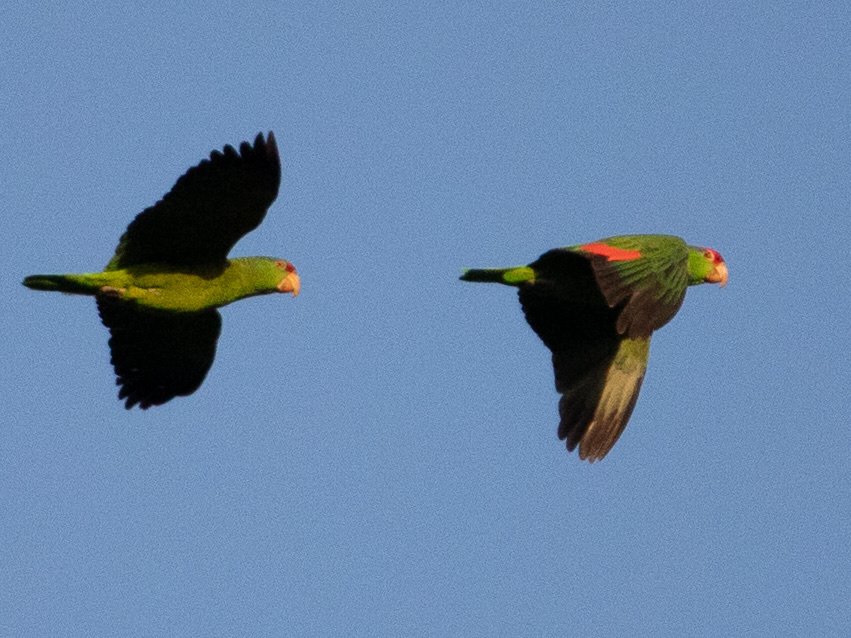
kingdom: Animalia
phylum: Chordata
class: Aves
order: Psittaciformes
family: Psittacidae
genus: Amazona
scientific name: Amazona viridigenalis
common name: Red-crowned amazon
